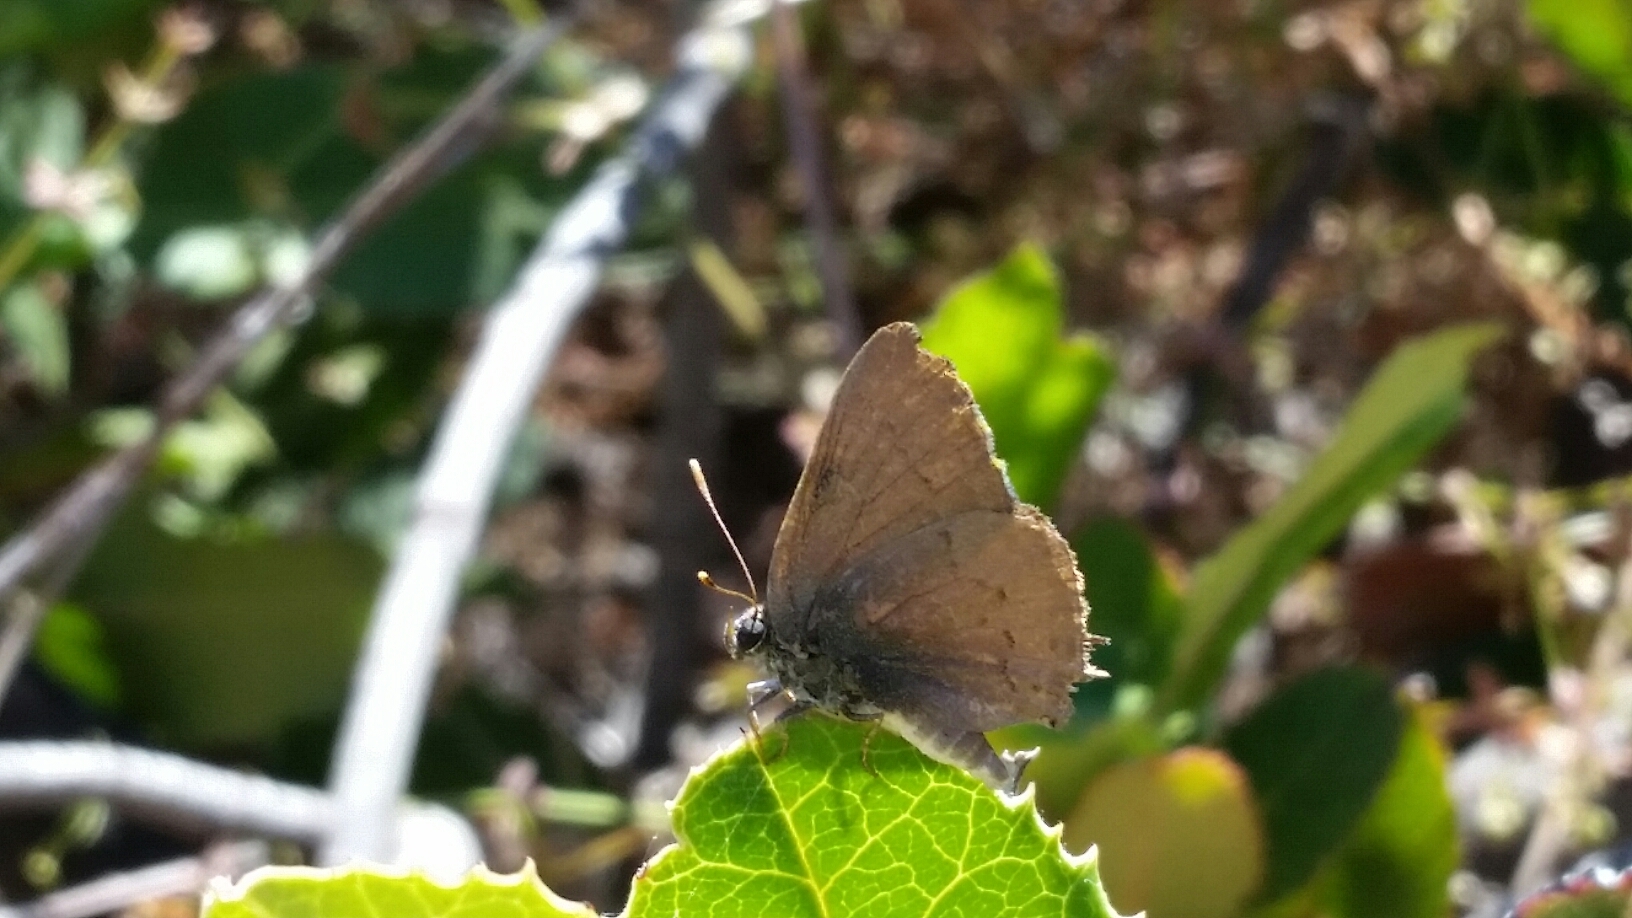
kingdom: Animalia
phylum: Arthropoda
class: Insecta
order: Lepidoptera
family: Lycaenidae
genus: Strymon
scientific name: Strymon saepium
